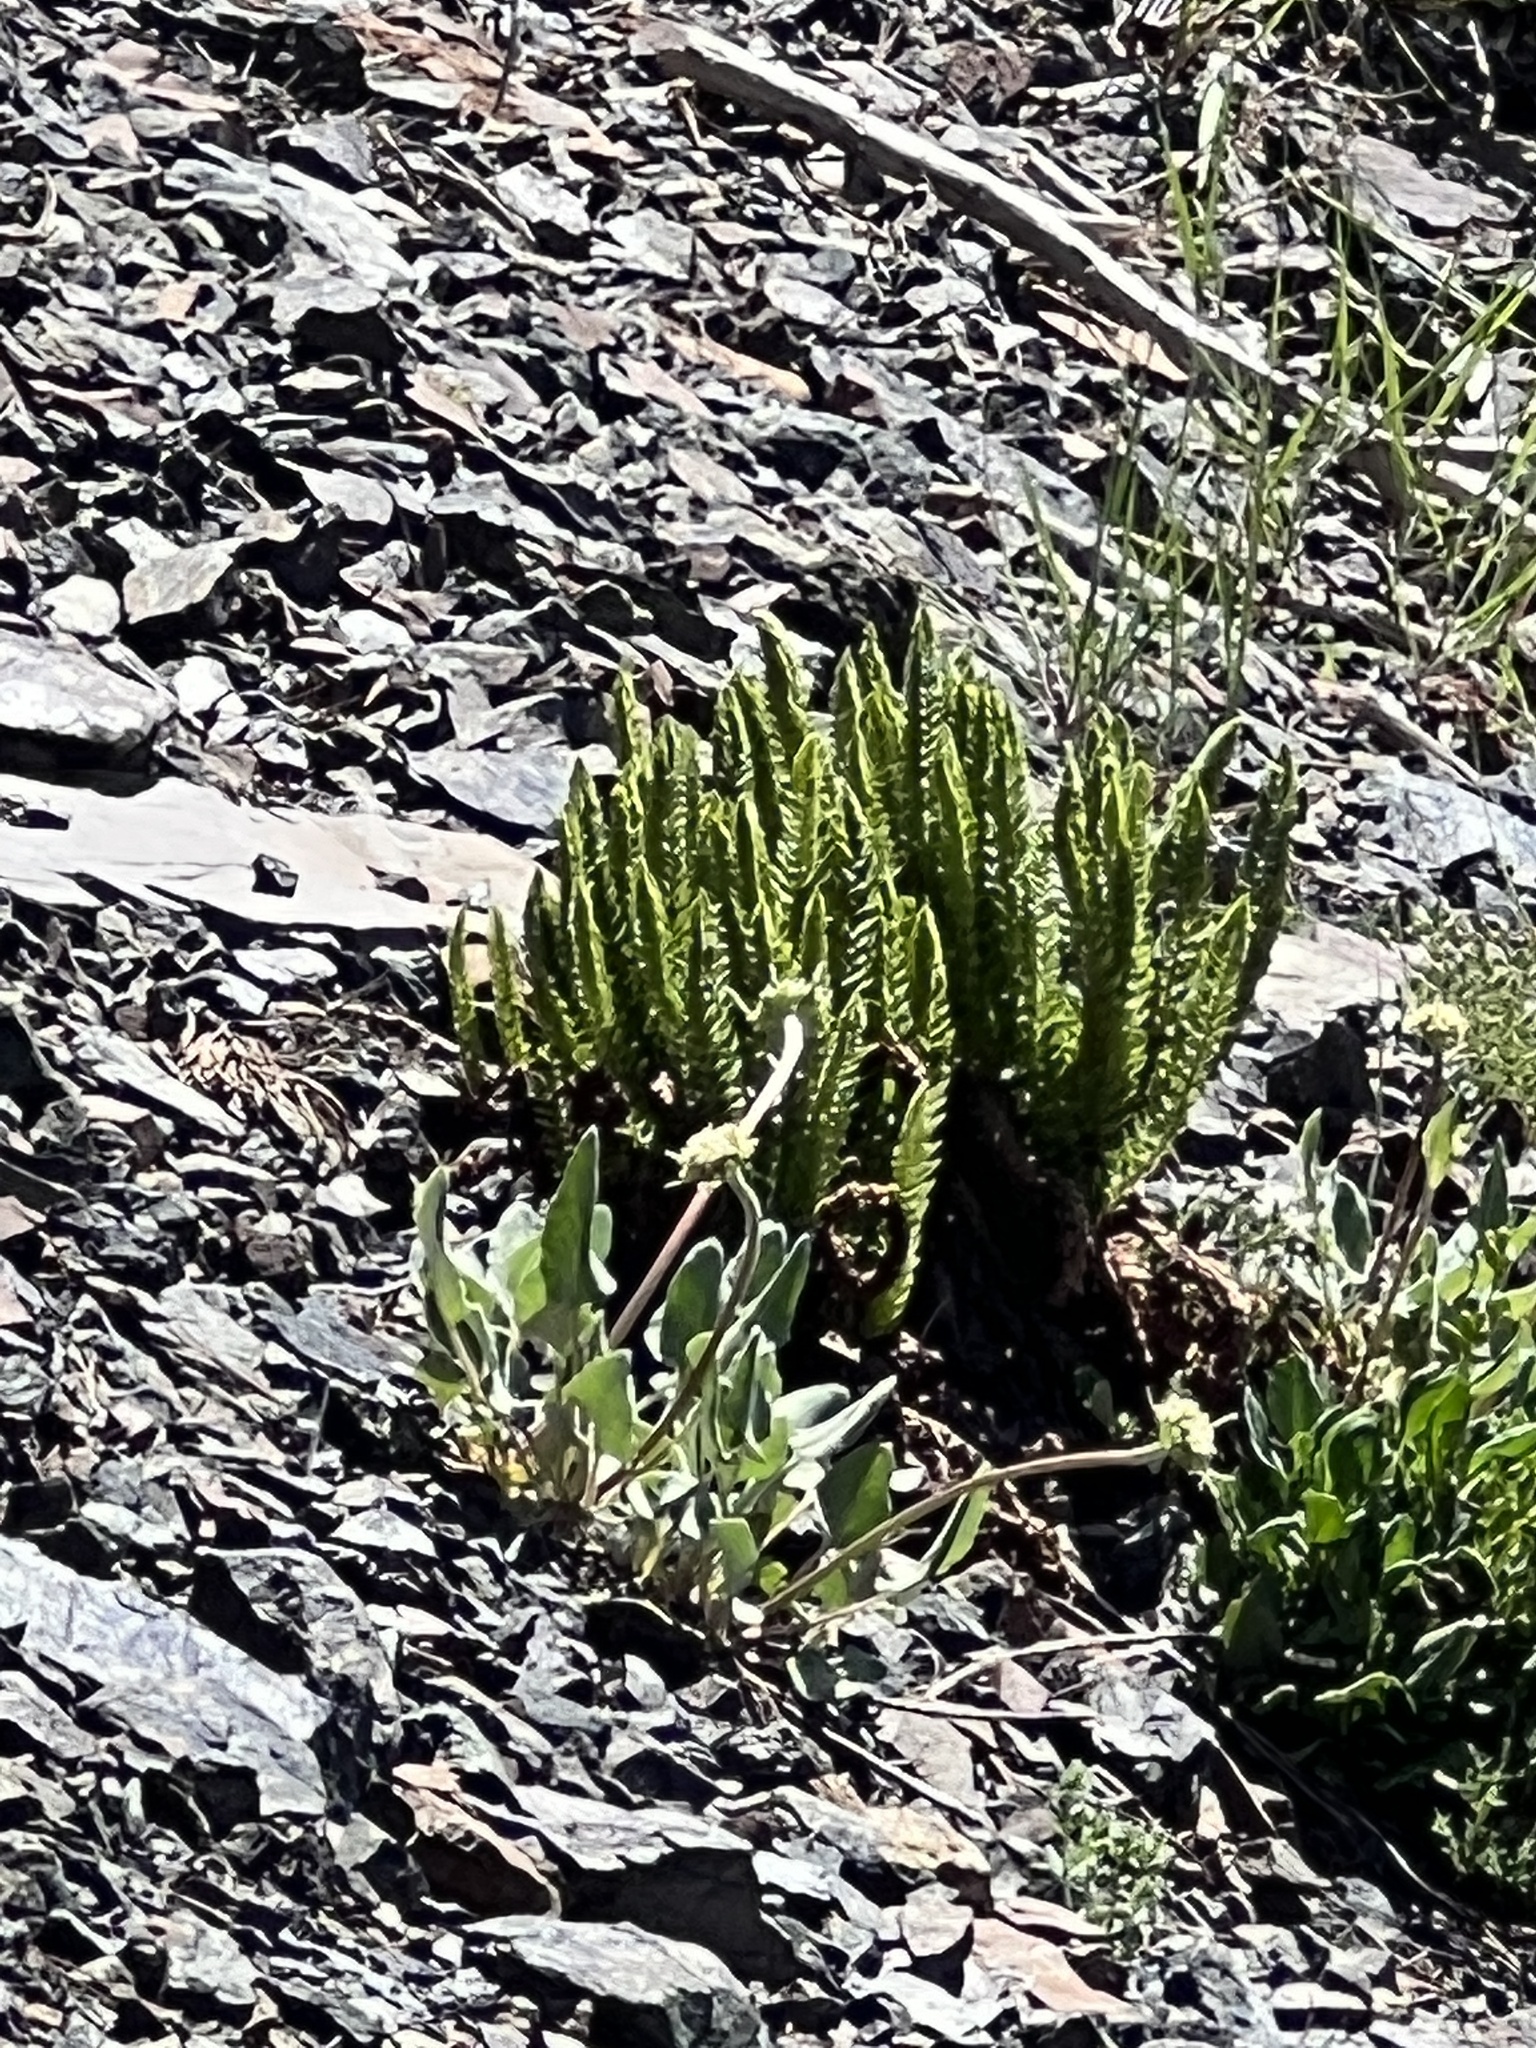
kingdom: Plantae
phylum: Tracheophyta
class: Polypodiopsida
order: Polypodiales
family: Dryopteridaceae
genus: Polystichum
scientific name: Polystichum lemmonii
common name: Lemmon's holly fern
